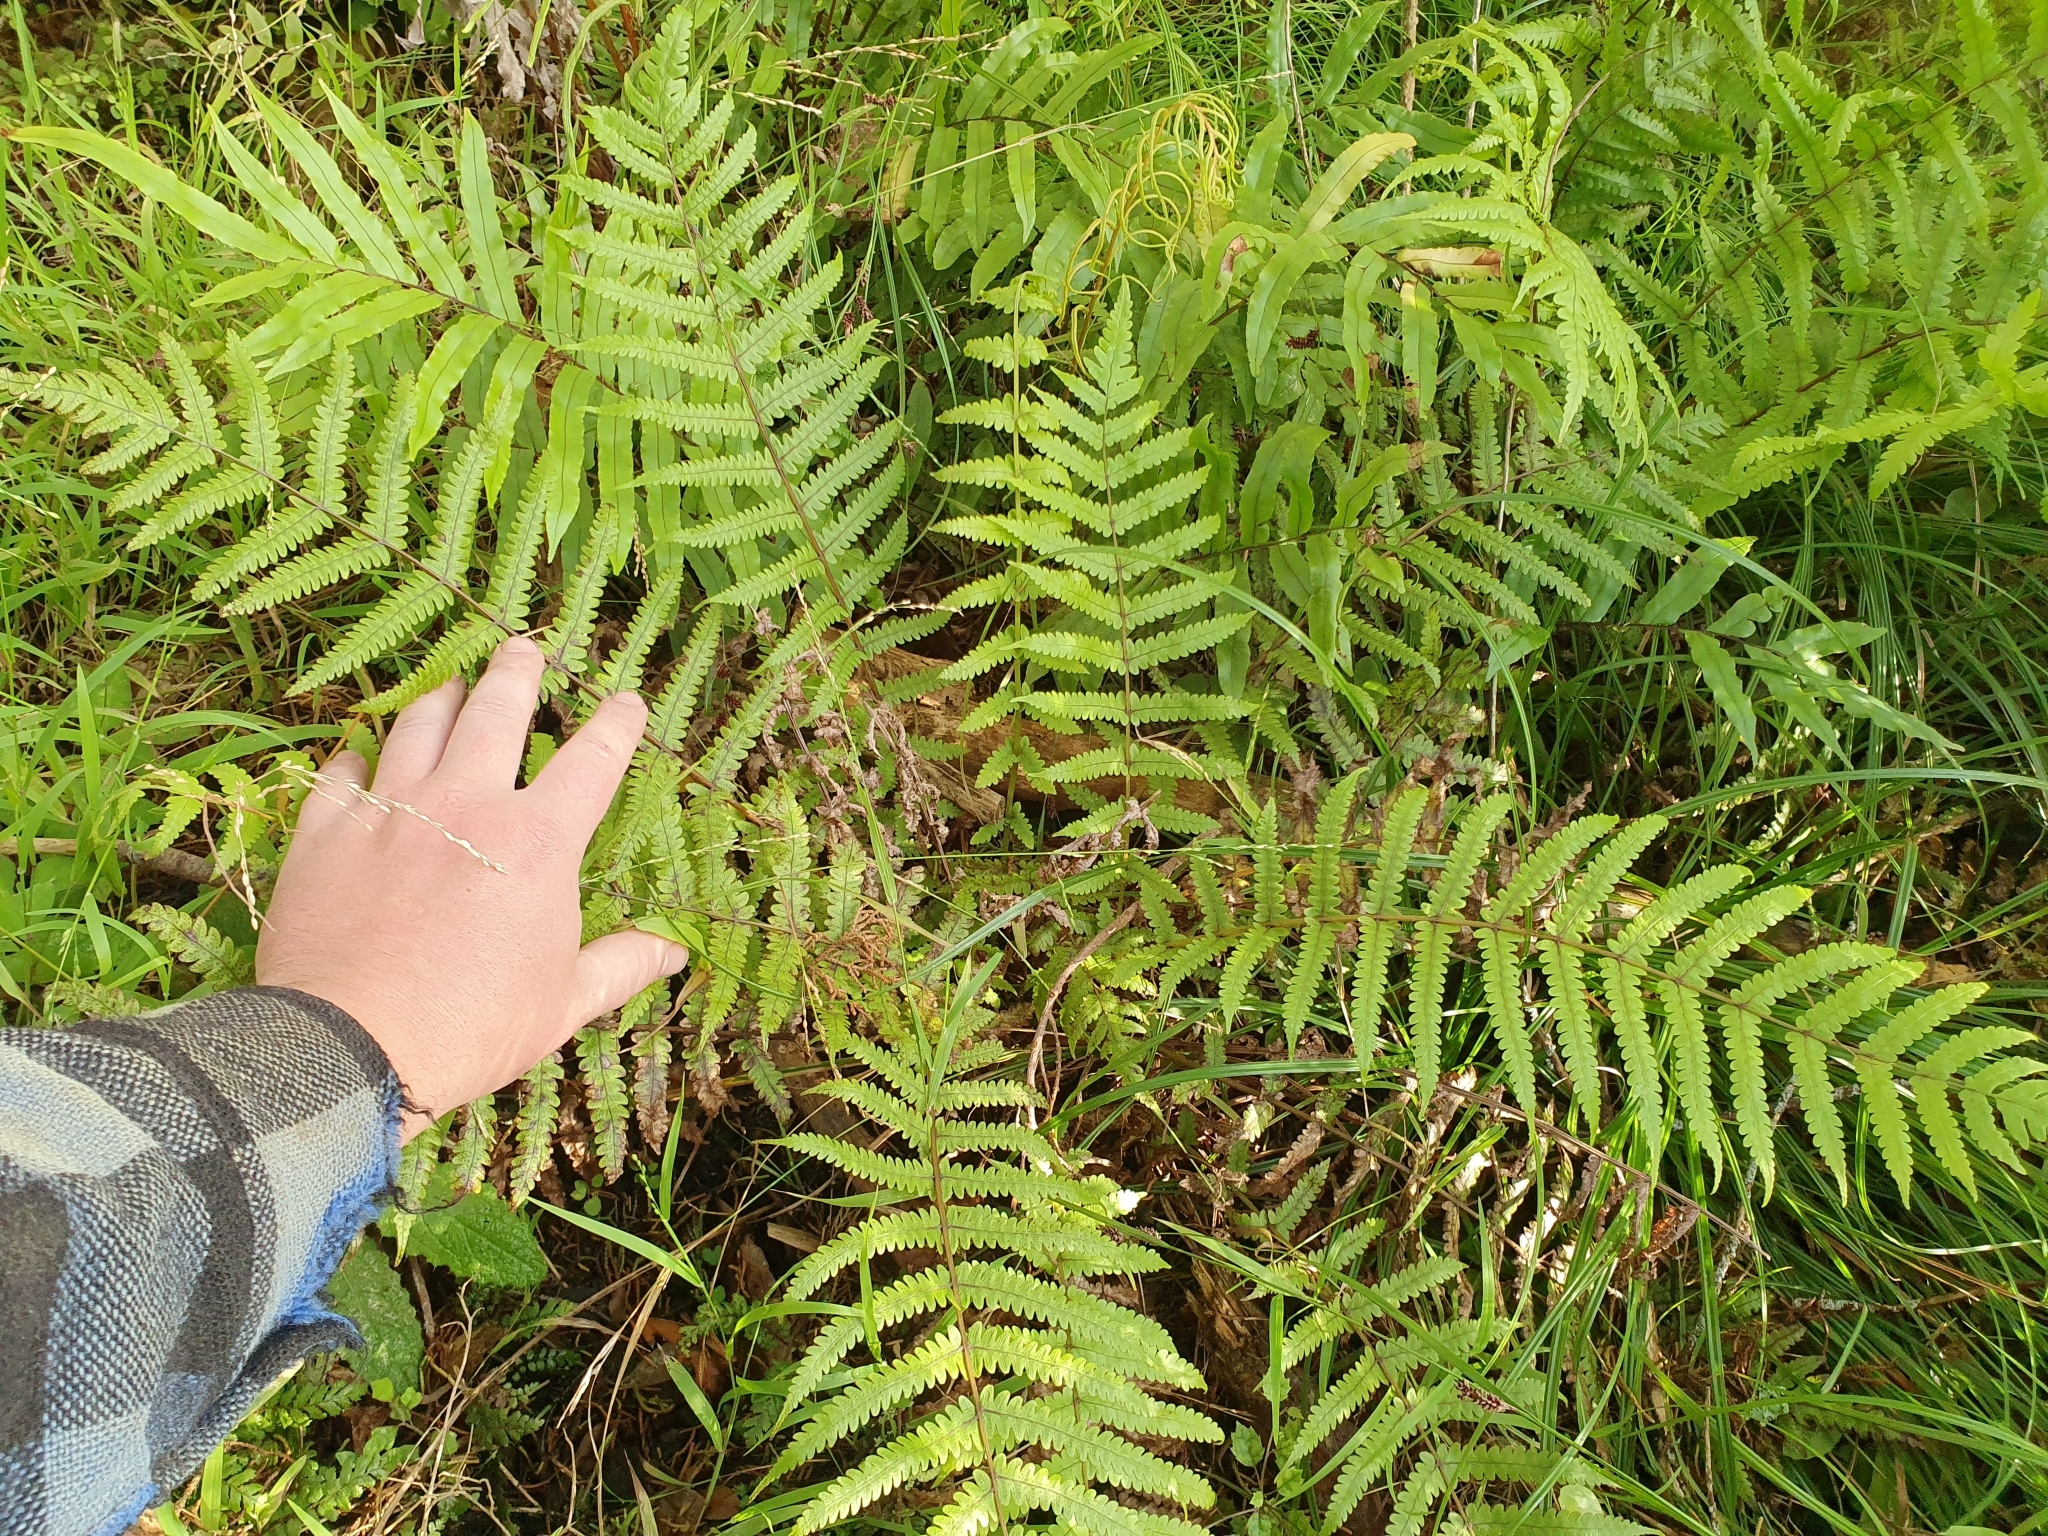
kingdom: Plantae
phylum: Tracheophyta
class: Polypodiopsida
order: Polypodiales
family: Thelypteridaceae
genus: Pakau
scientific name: Pakau pennigera
